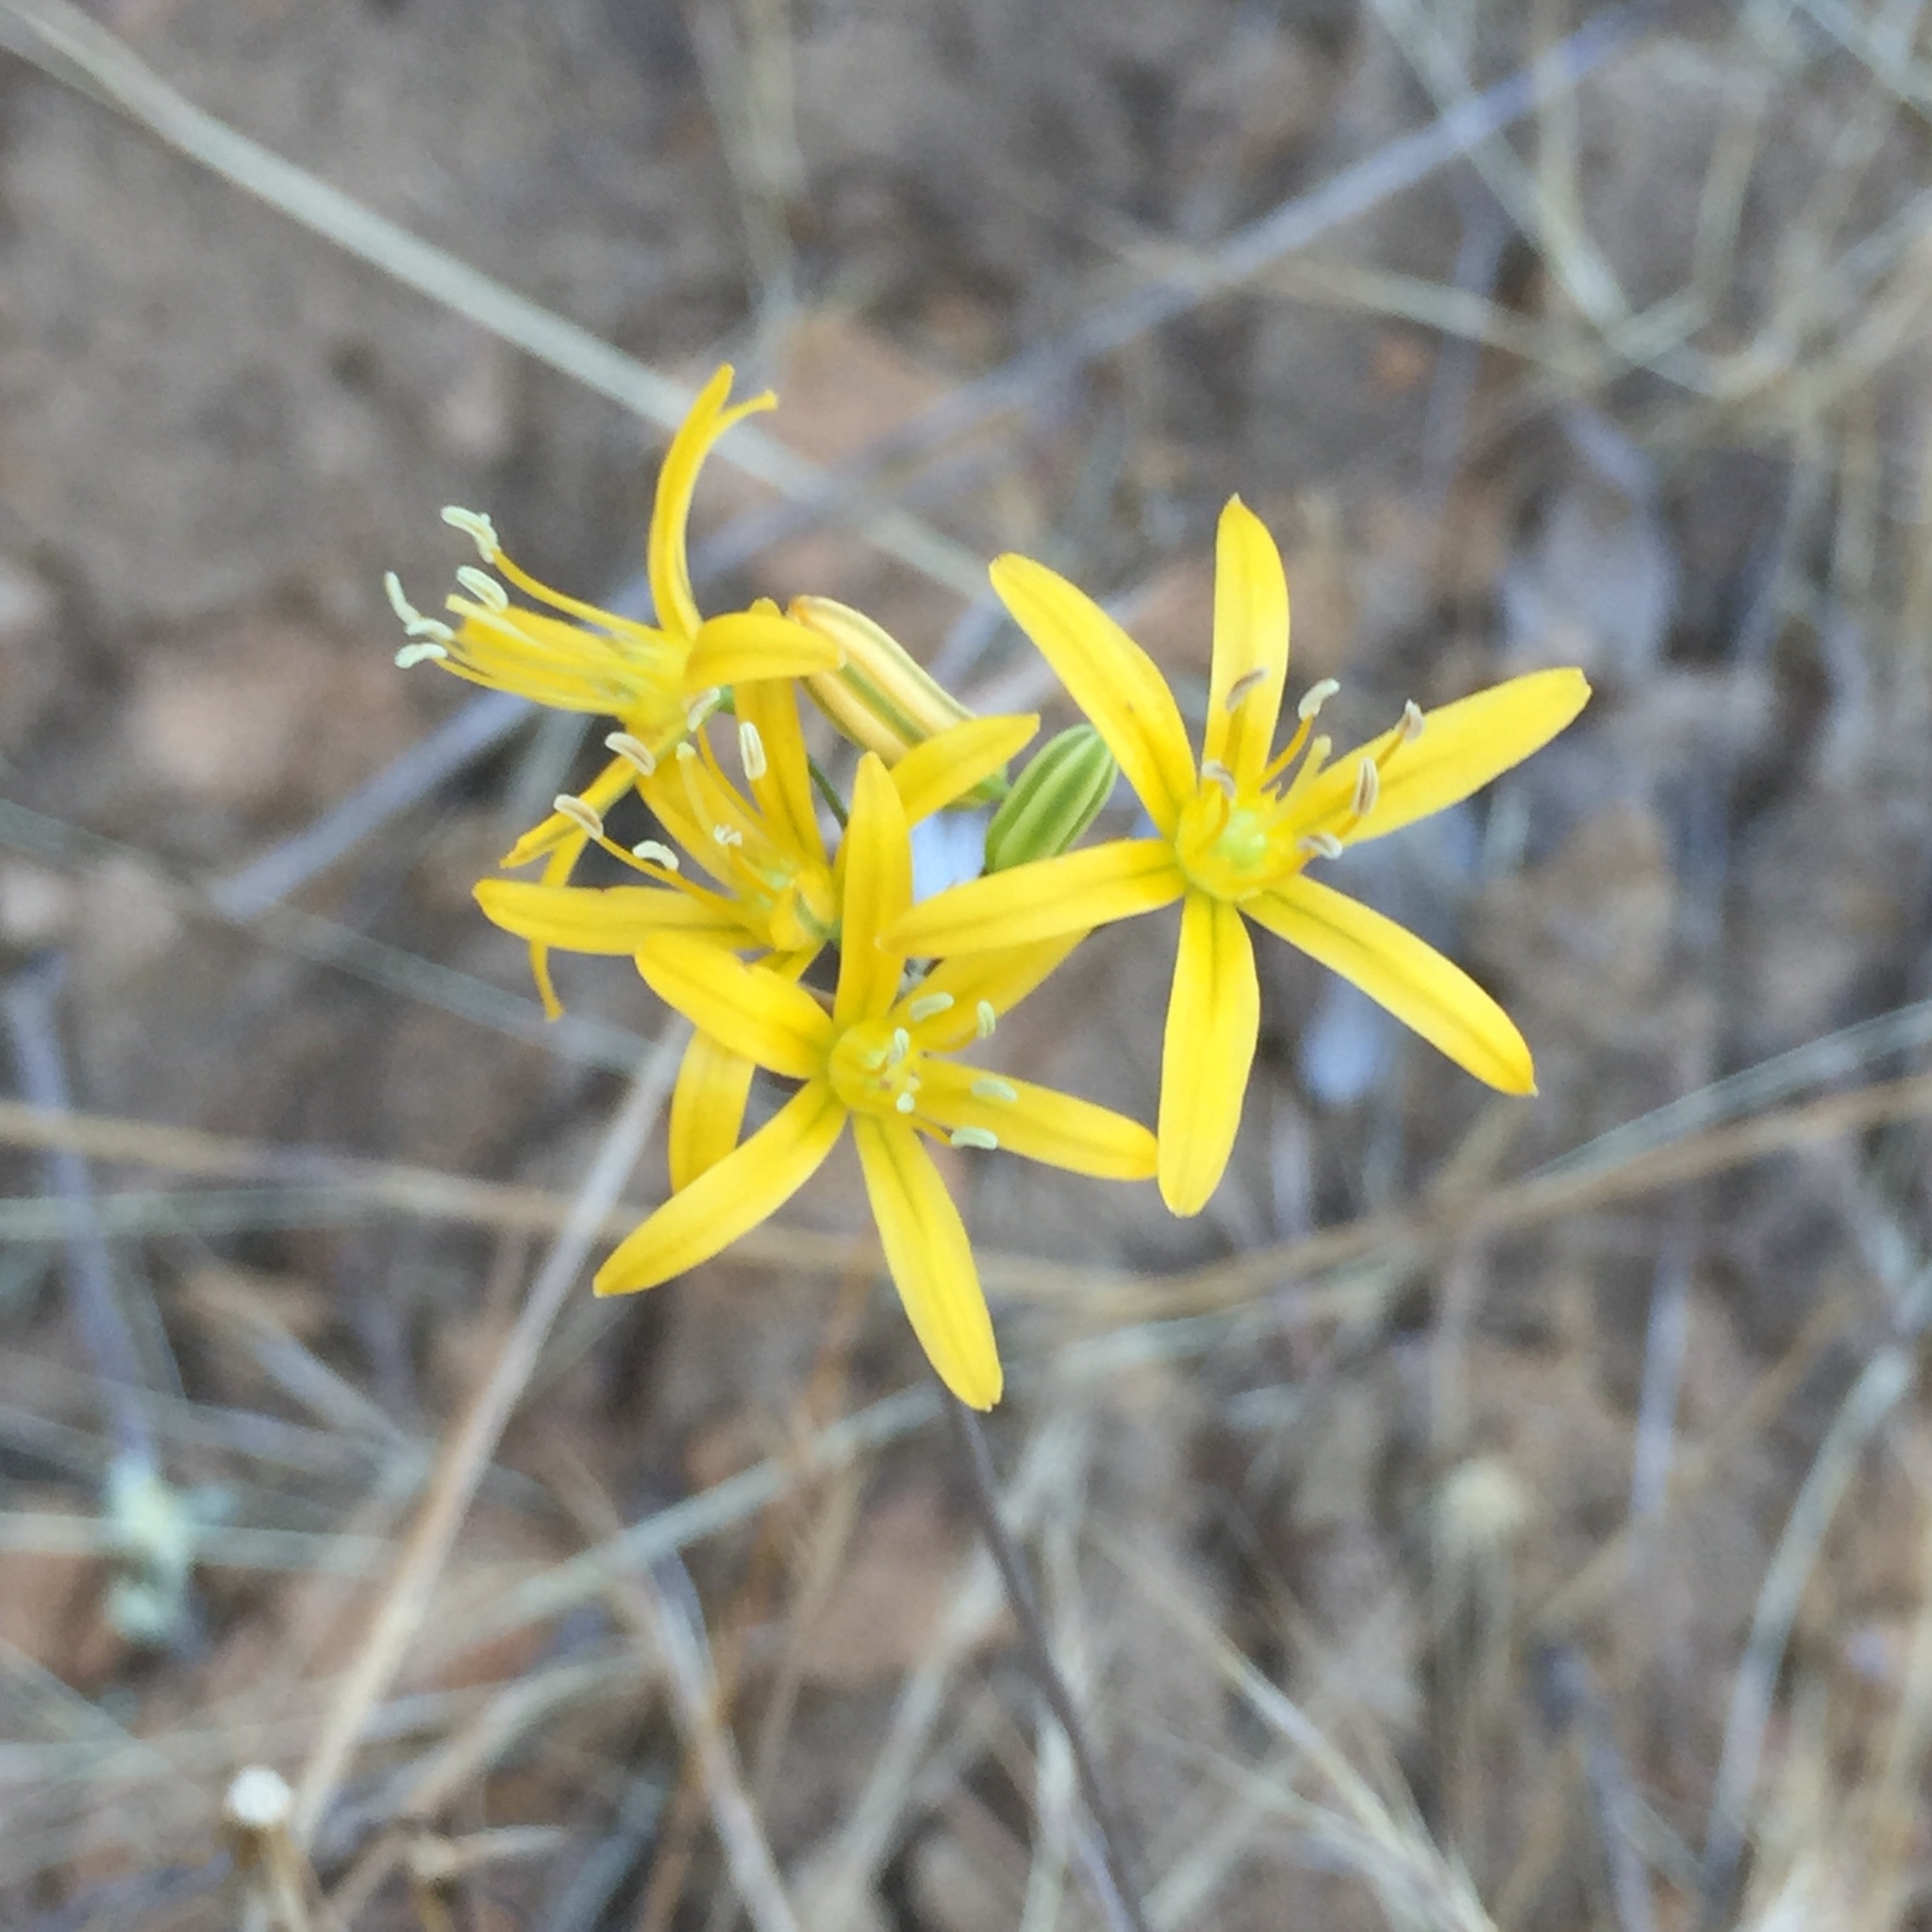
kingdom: Plantae
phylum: Tracheophyta
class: Liliopsida
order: Asparagales
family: Asparagaceae
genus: Bloomeria
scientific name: Bloomeria crocea
